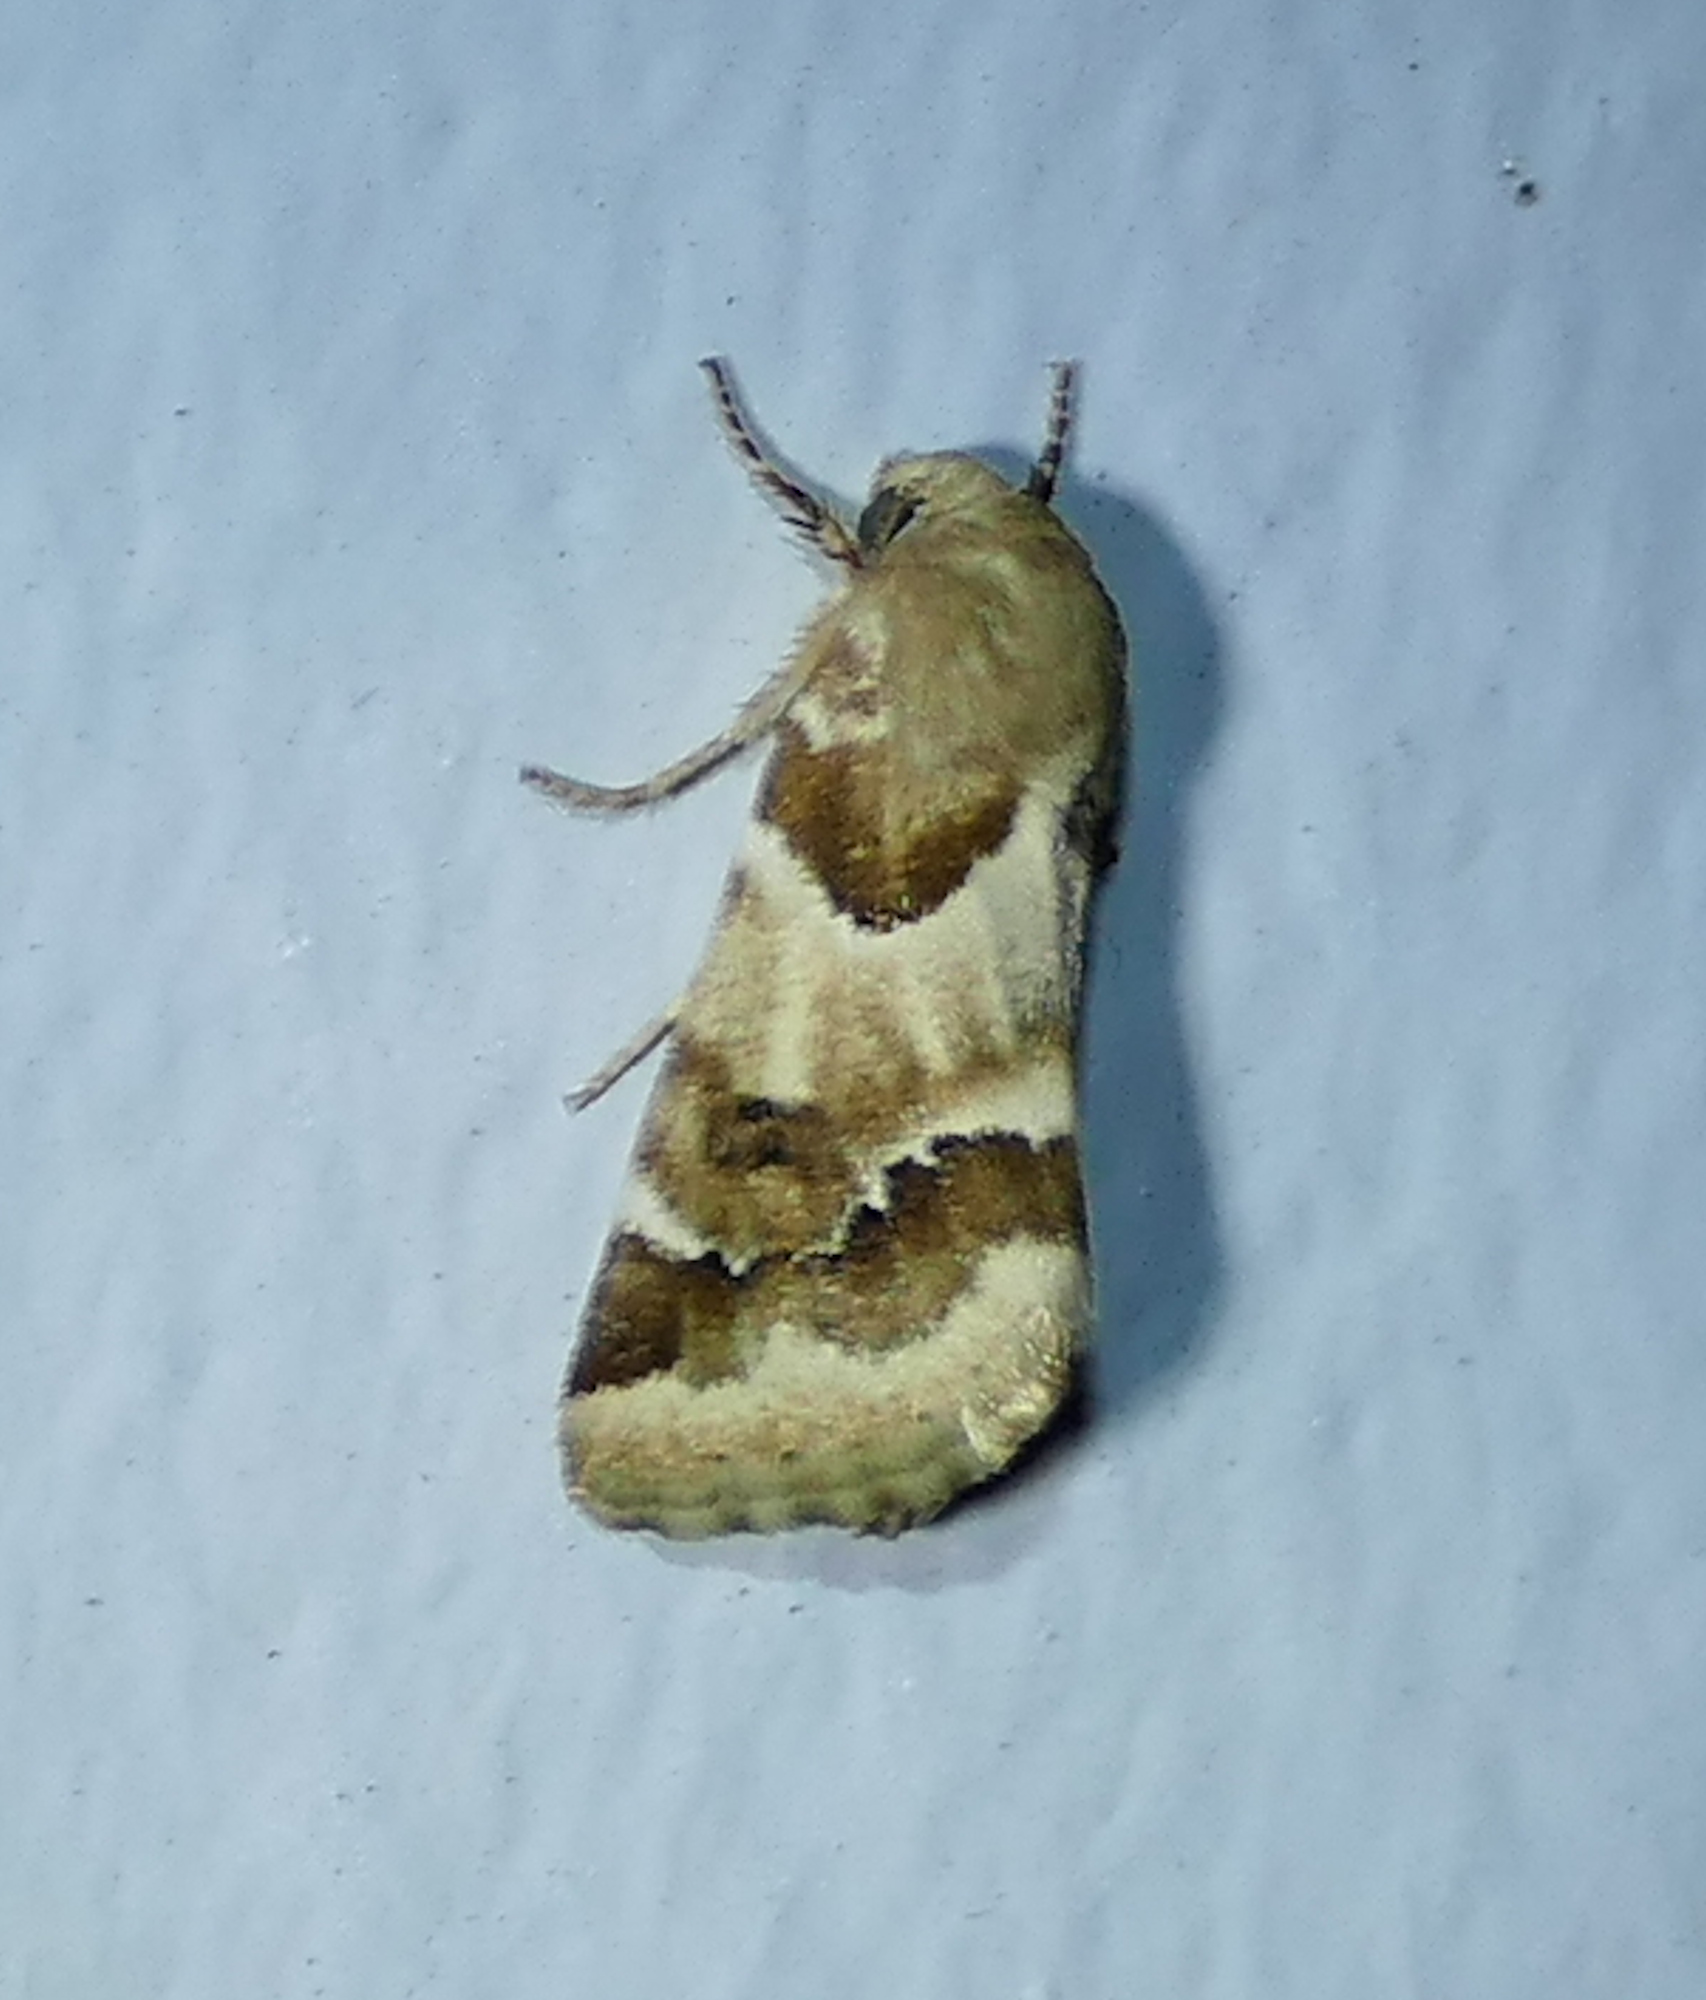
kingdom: Animalia
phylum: Arthropoda
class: Insecta
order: Lepidoptera
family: Noctuidae
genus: Schinia
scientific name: Schinia walsinghami
